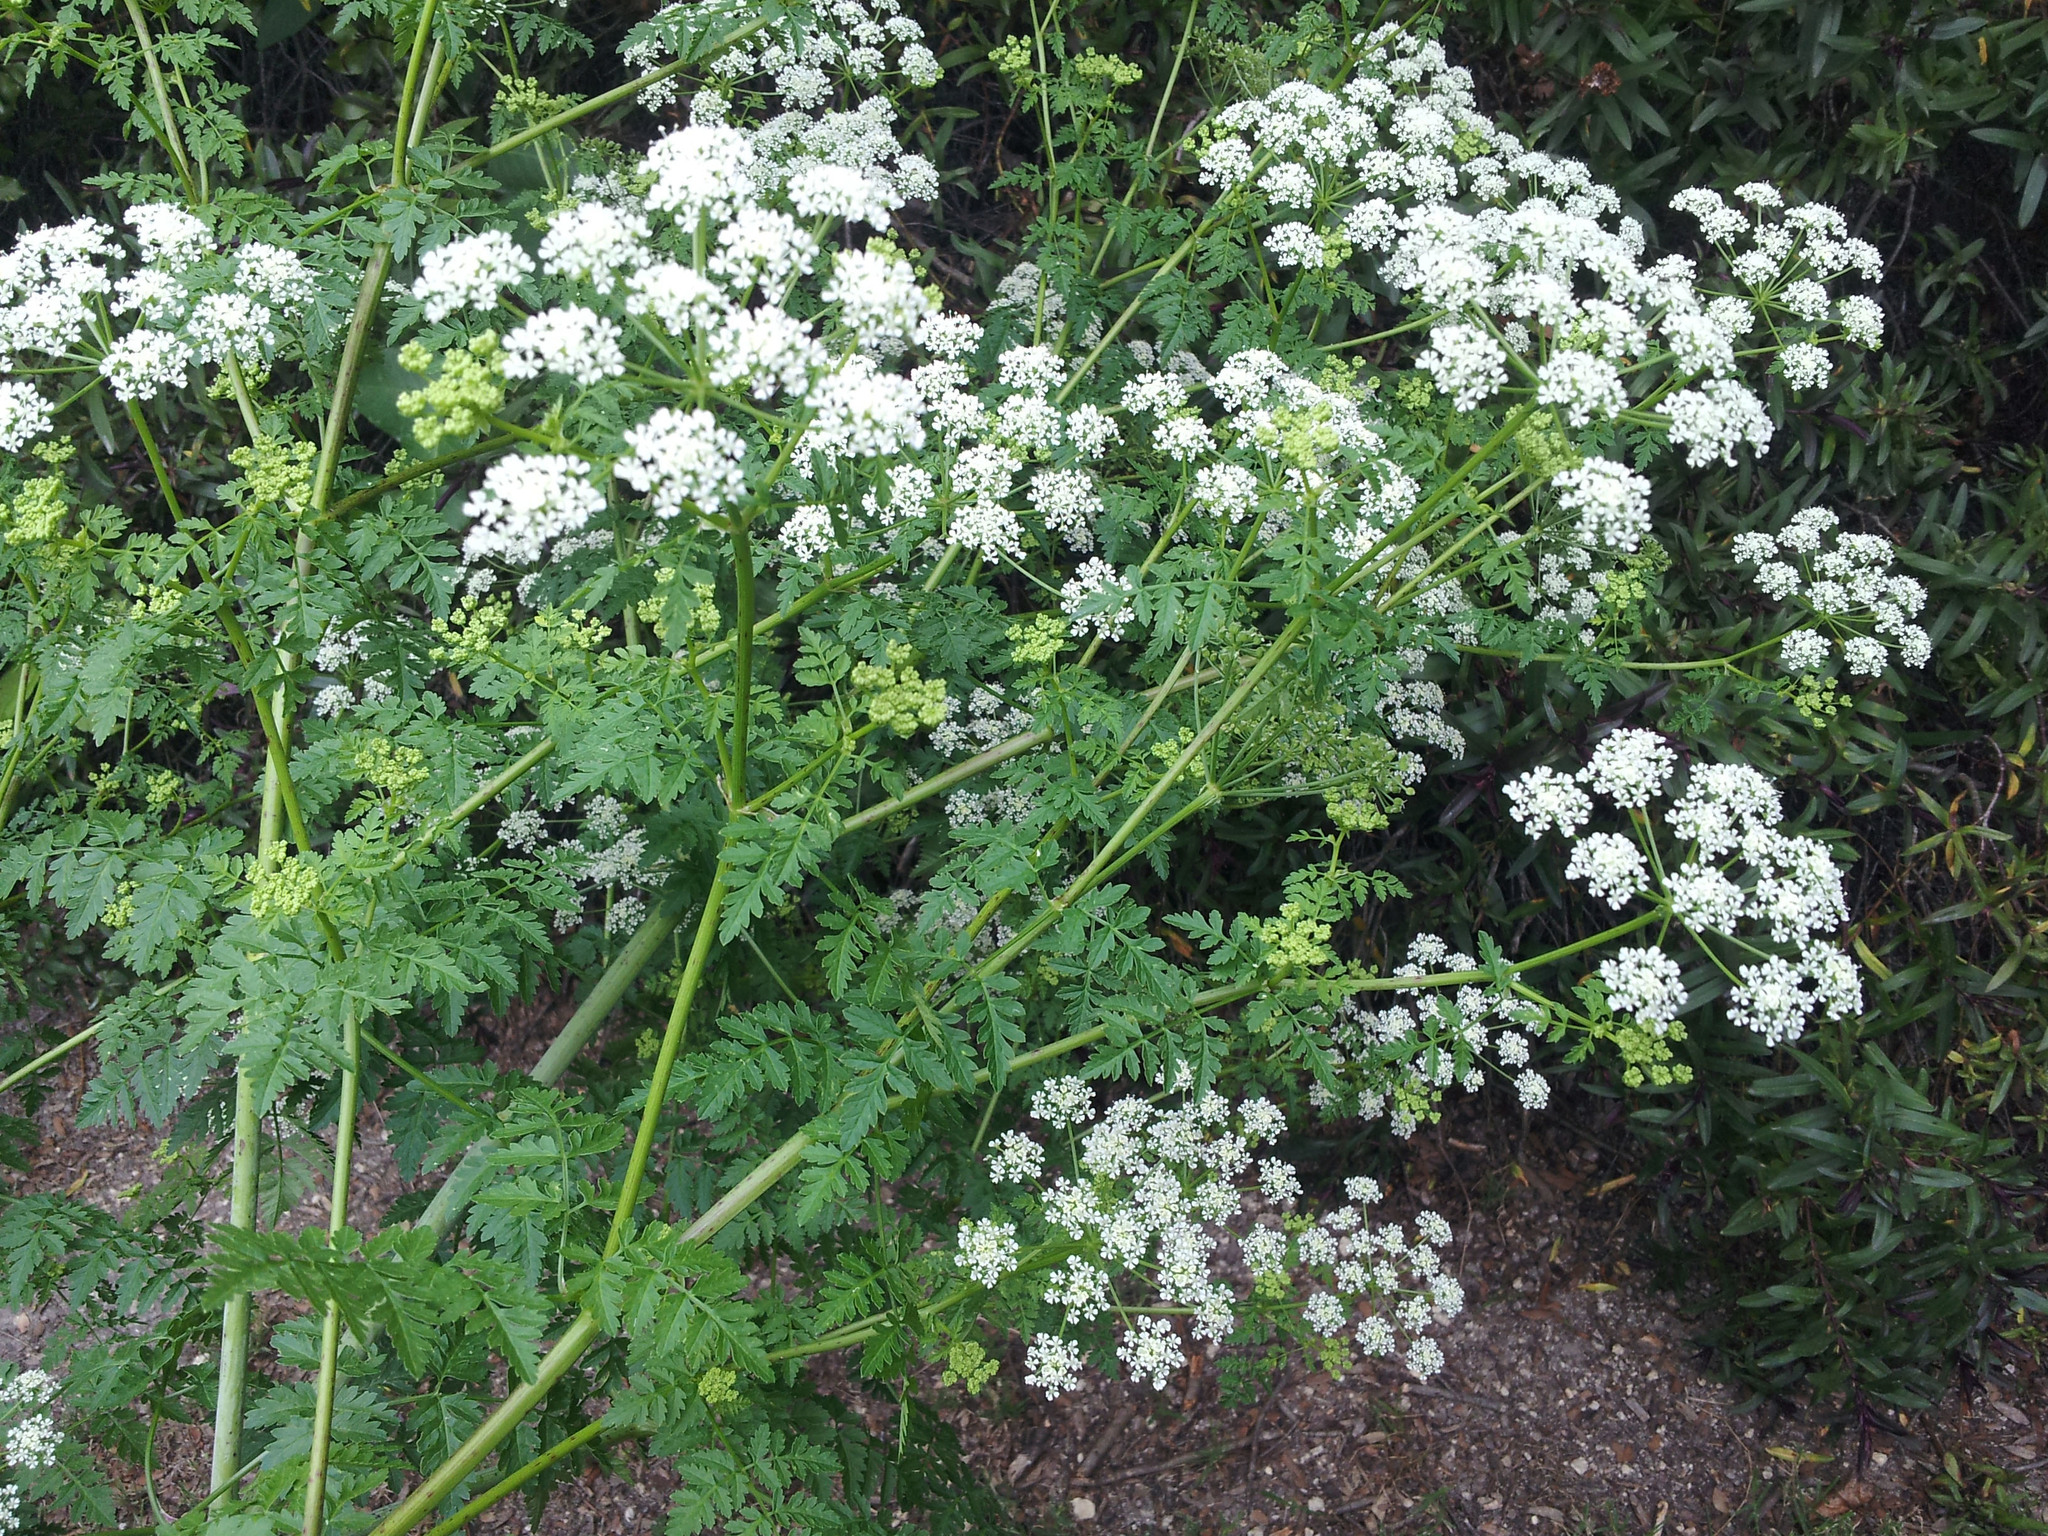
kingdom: Plantae
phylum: Tracheophyta
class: Magnoliopsida
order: Apiales
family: Apiaceae
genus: Conium
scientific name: Conium maculatum
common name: Hemlock
